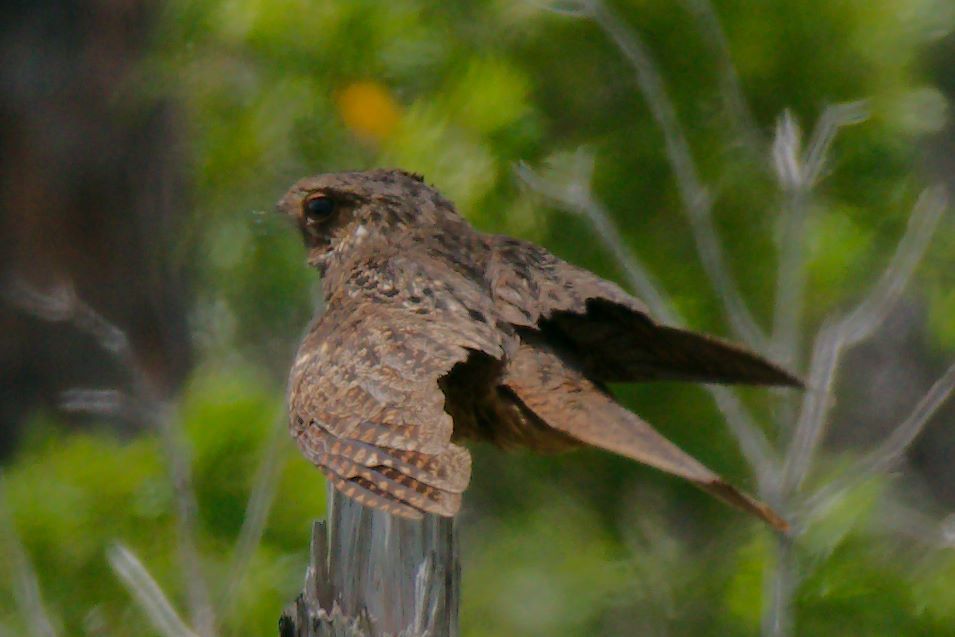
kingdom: Animalia
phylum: Chordata
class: Aves
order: Caprimulgiformes
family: Caprimulgidae
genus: Antrostomus
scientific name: Antrostomus carolinensis
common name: Chuck-will's-widow
